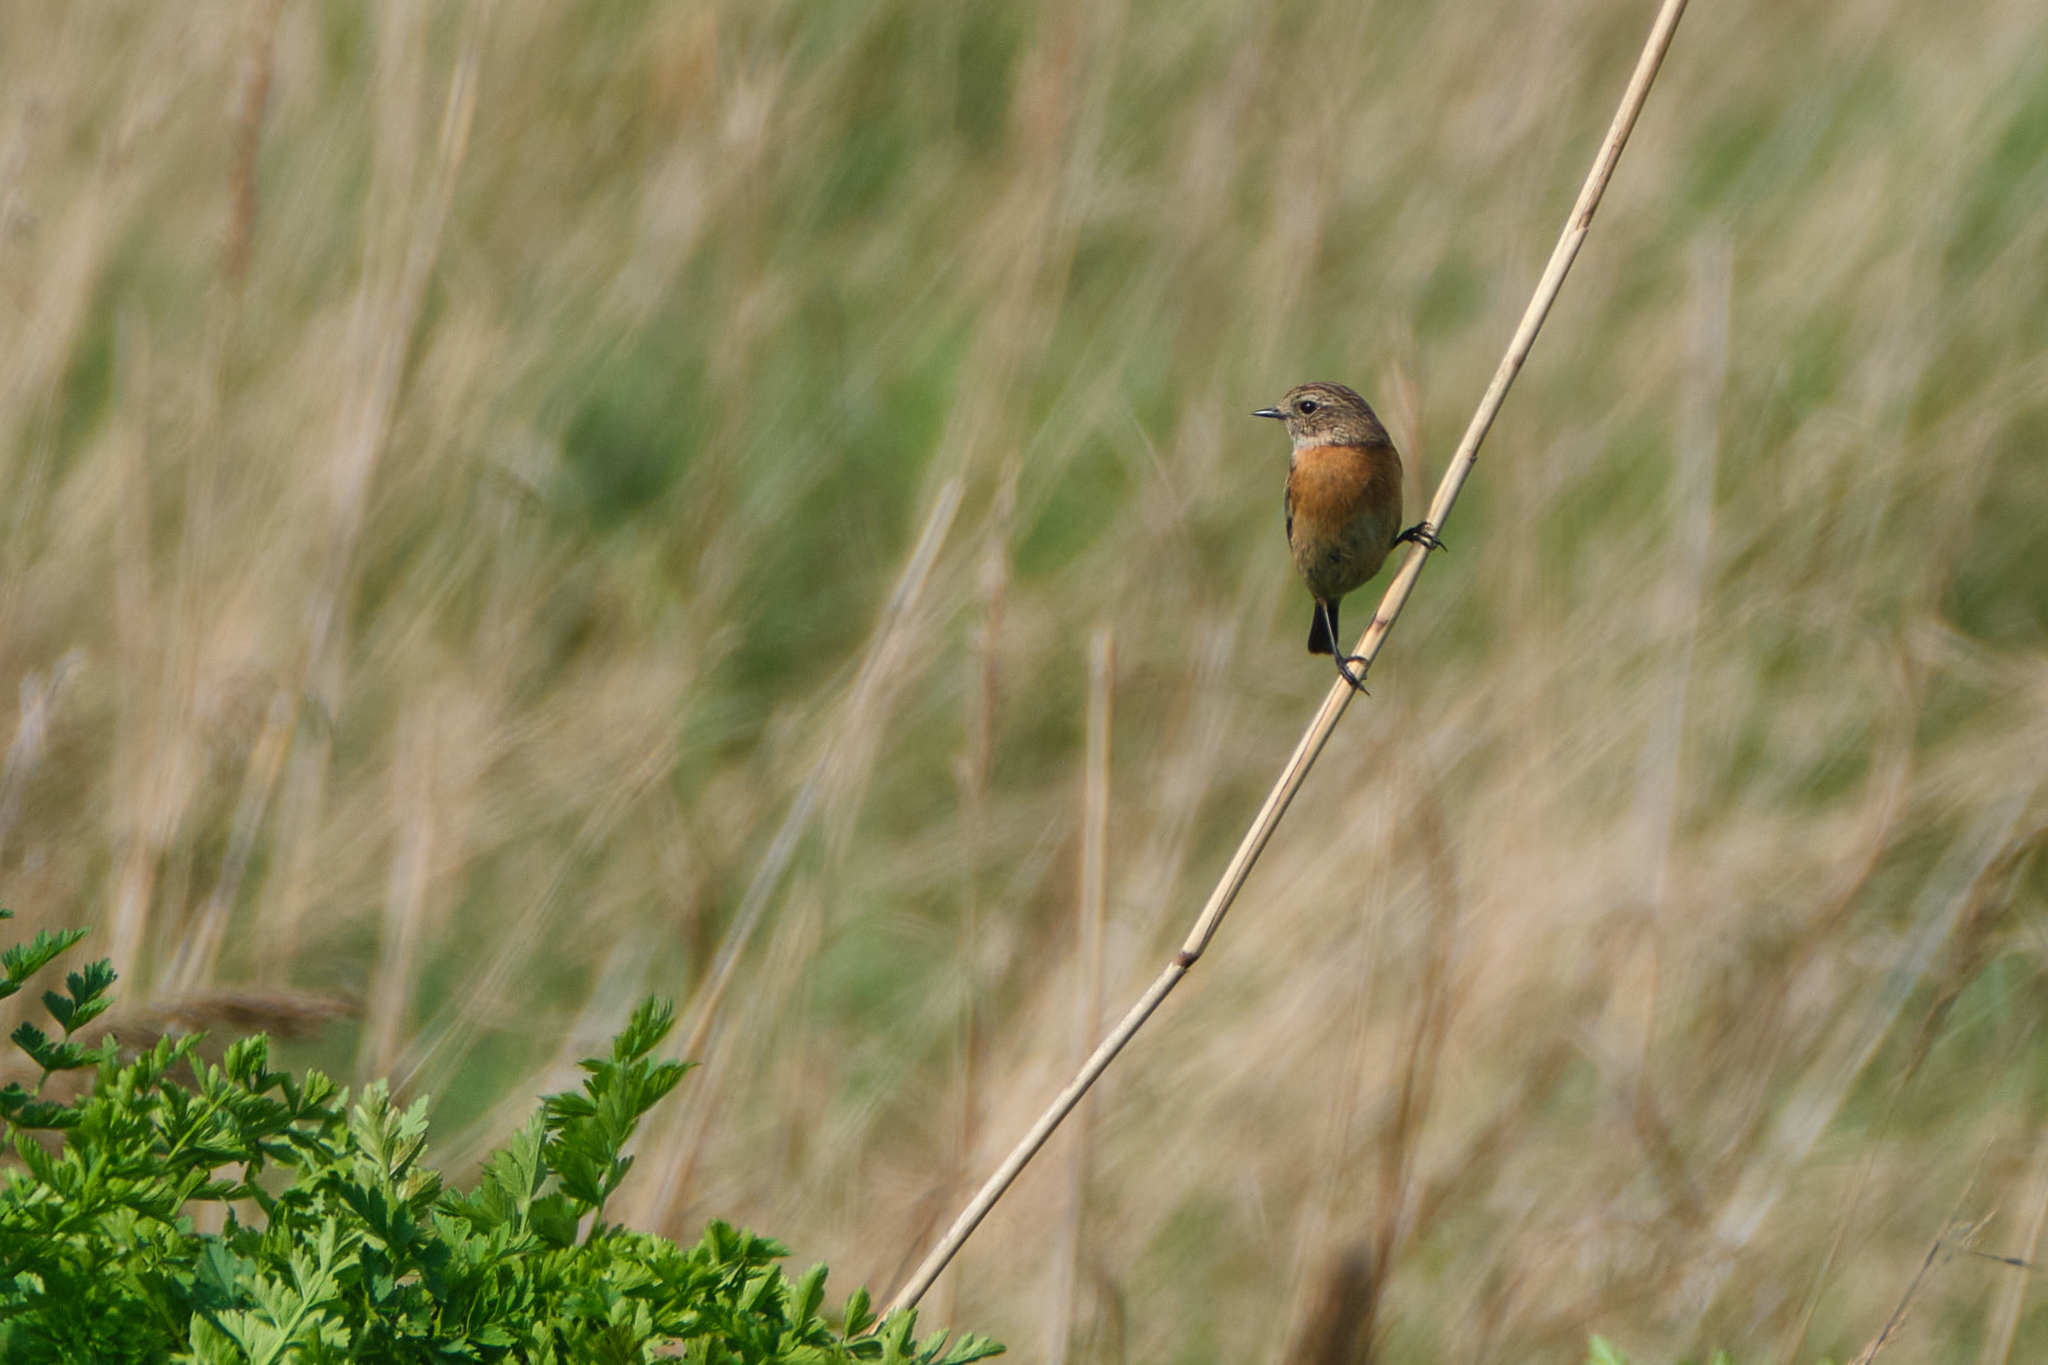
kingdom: Animalia
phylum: Chordata
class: Aves
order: Passeriformes
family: Muscicapidae
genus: Saxicola
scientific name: Saxicola rubicola
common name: European stonechat
